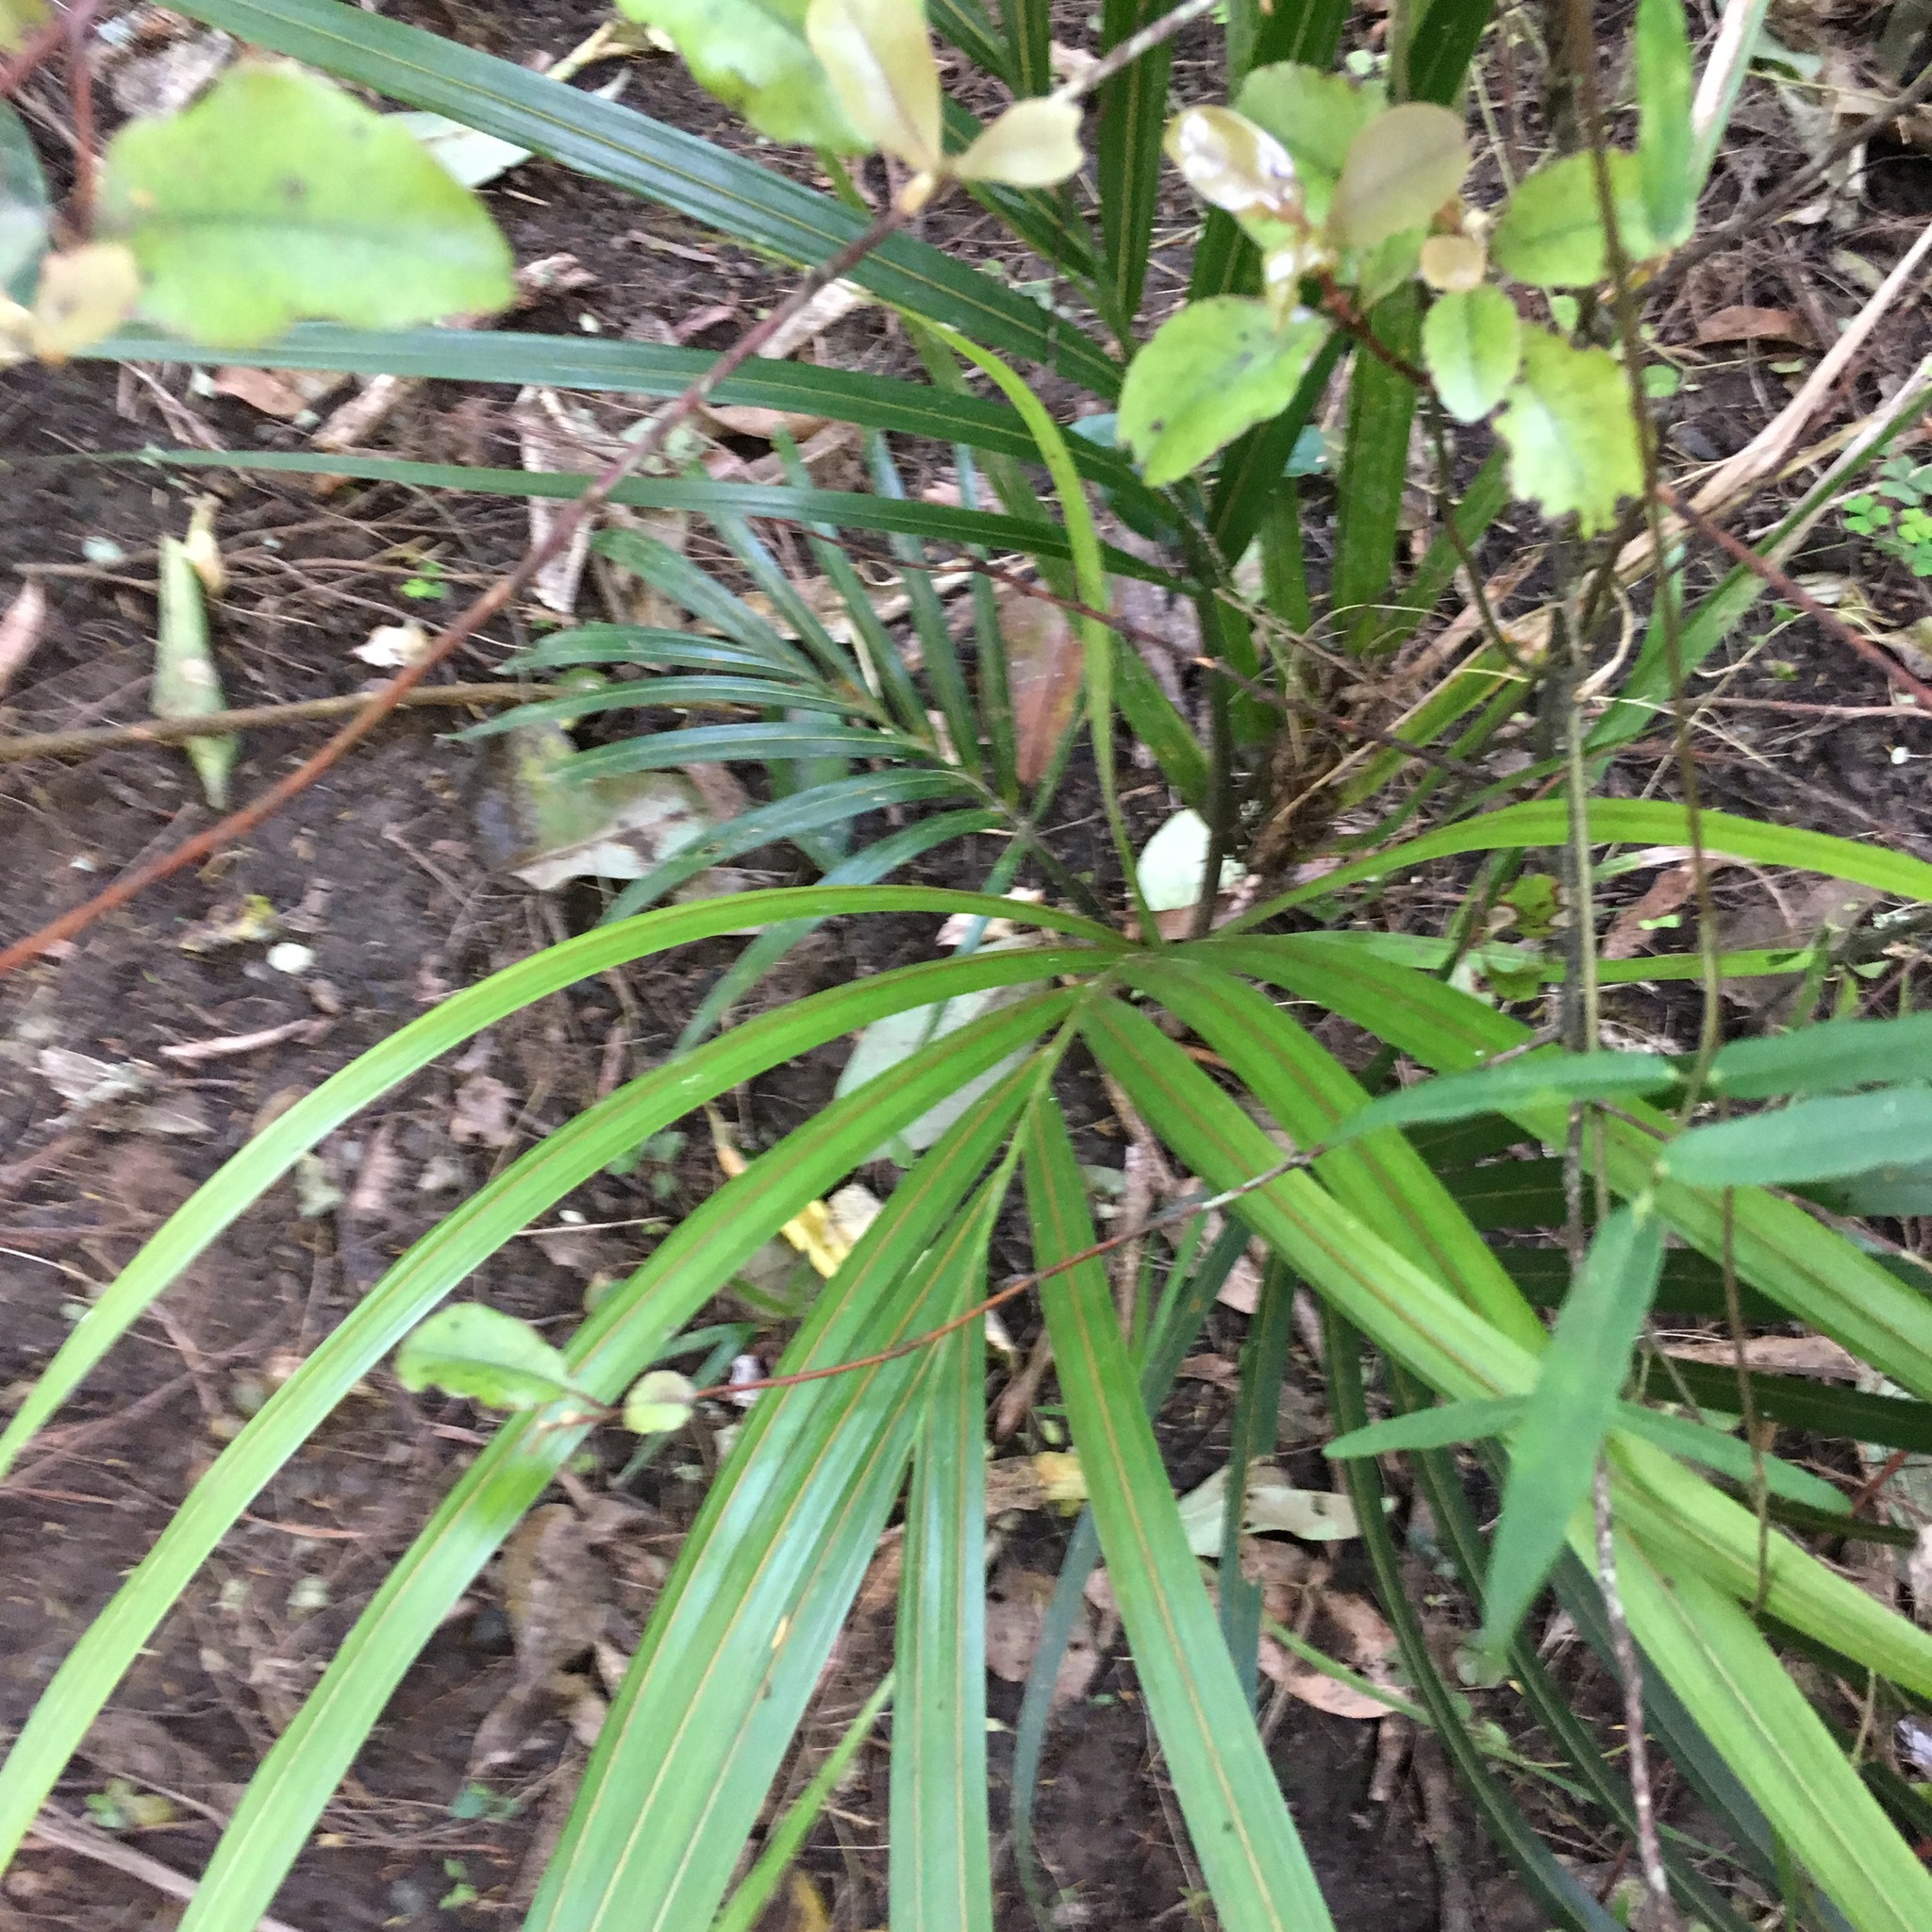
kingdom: Plantae
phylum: Tracheophyta
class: Liliopsida
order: Arecales
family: Arecaceae
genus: Rhopalostylis
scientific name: Rhopalostylis sapida
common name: Feather-duster palm
